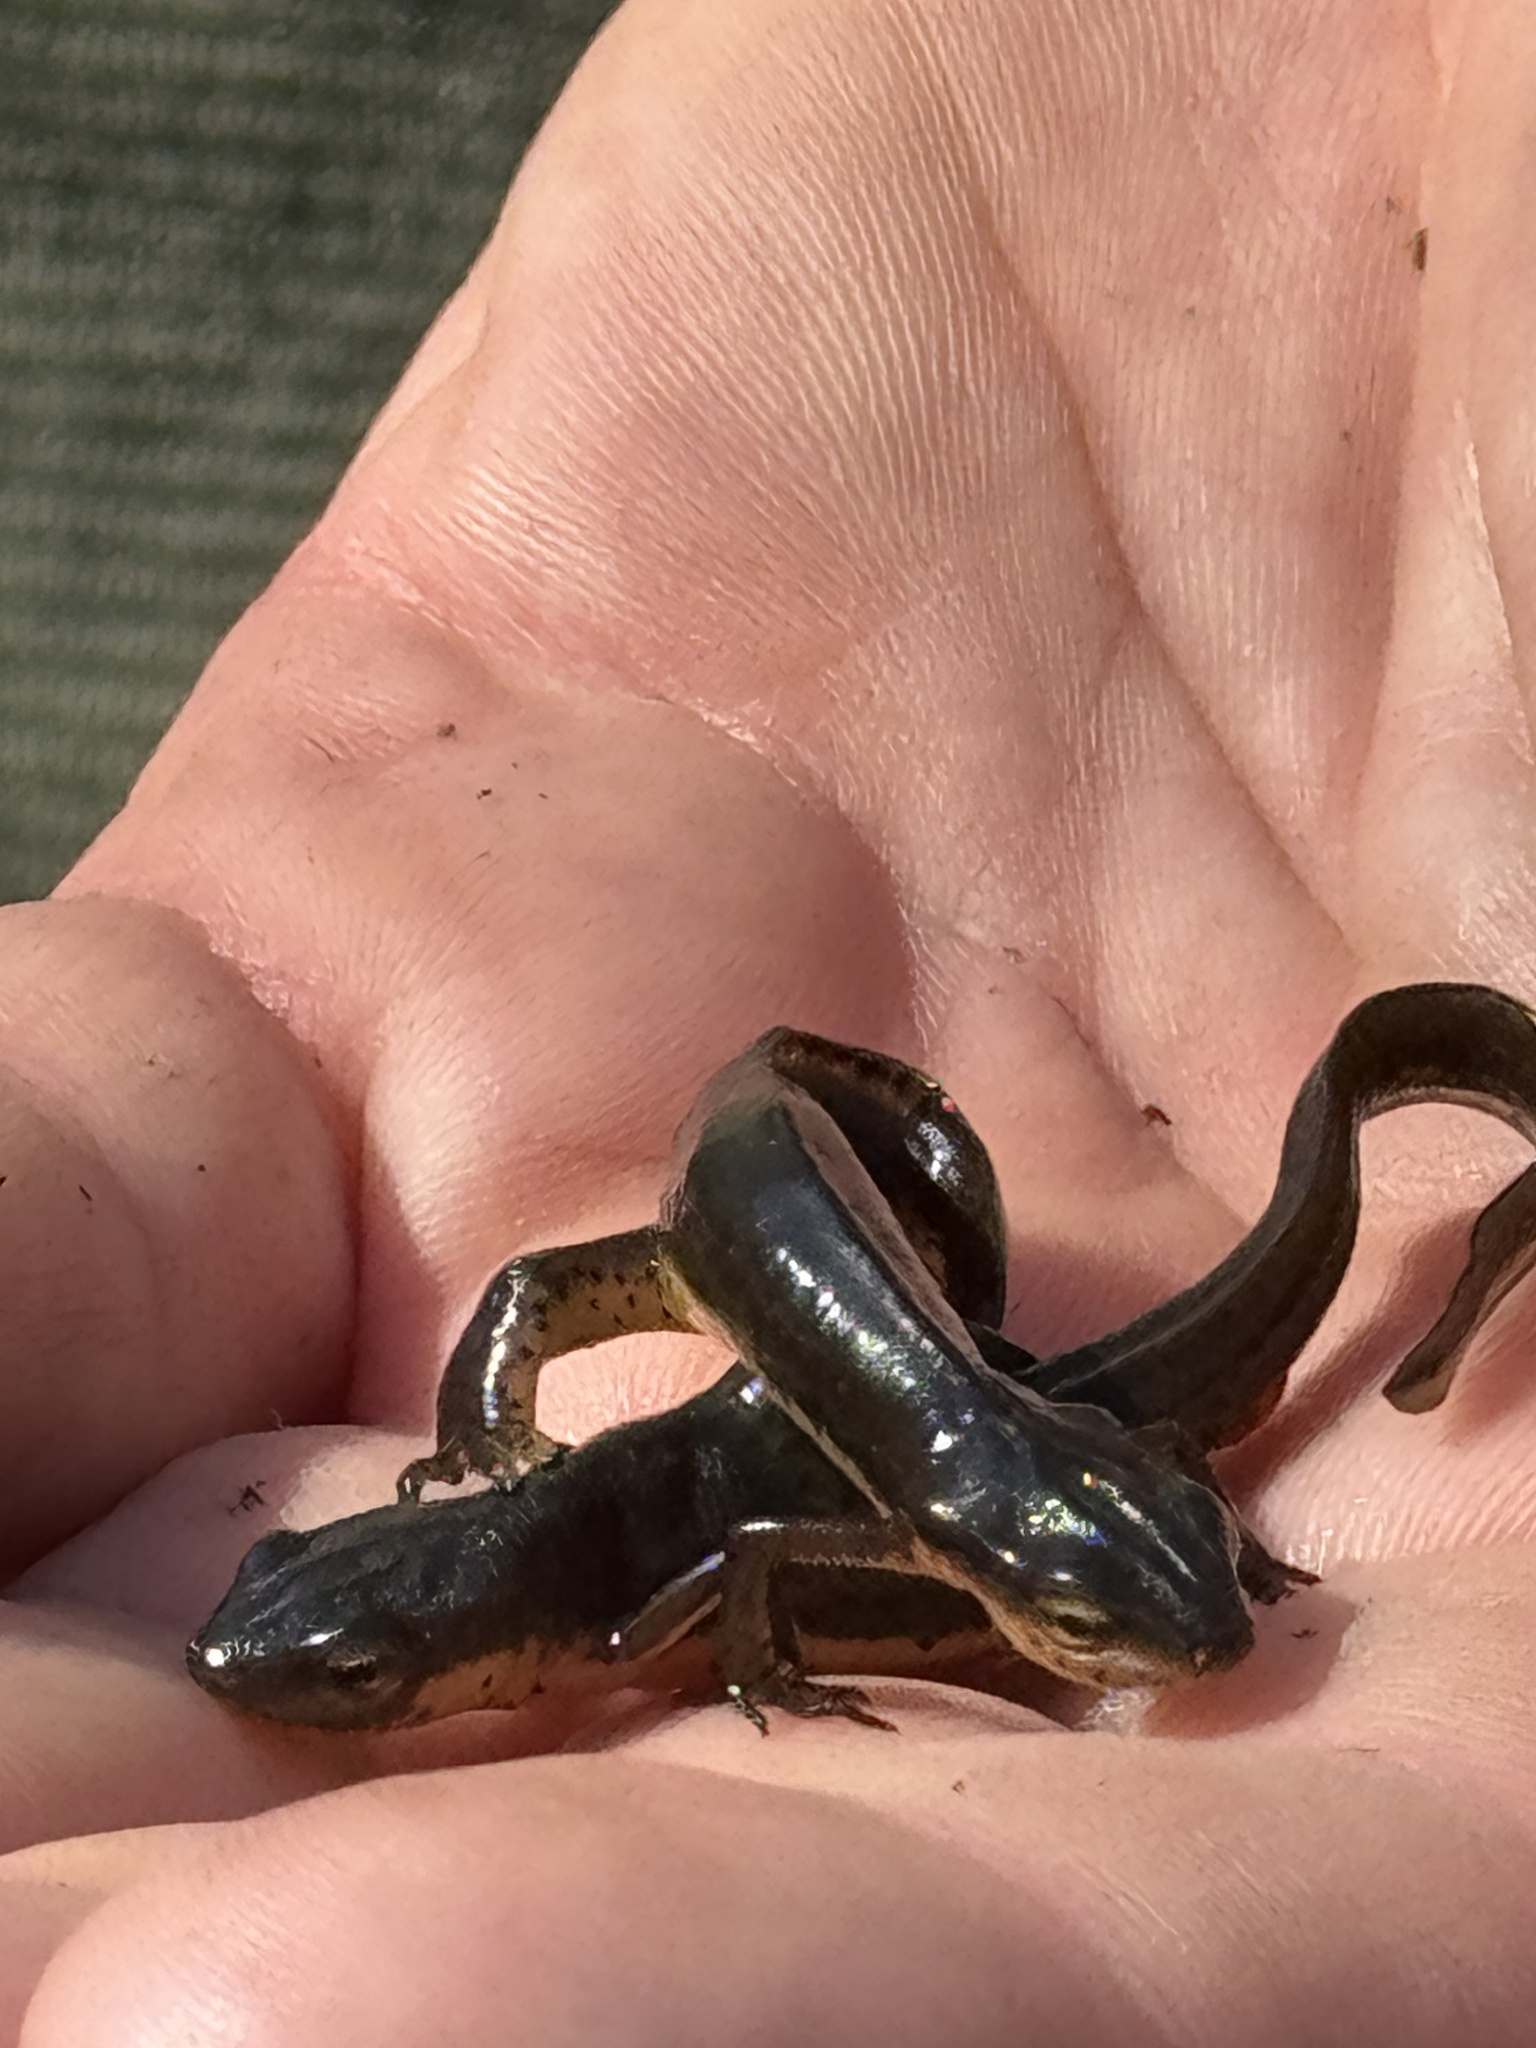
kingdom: Animalia
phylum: Chordata
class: Amphibia
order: Caudata
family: Salamandridae
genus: Notophthalmus
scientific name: Notophthalmus viridescens
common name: Eastern newt
